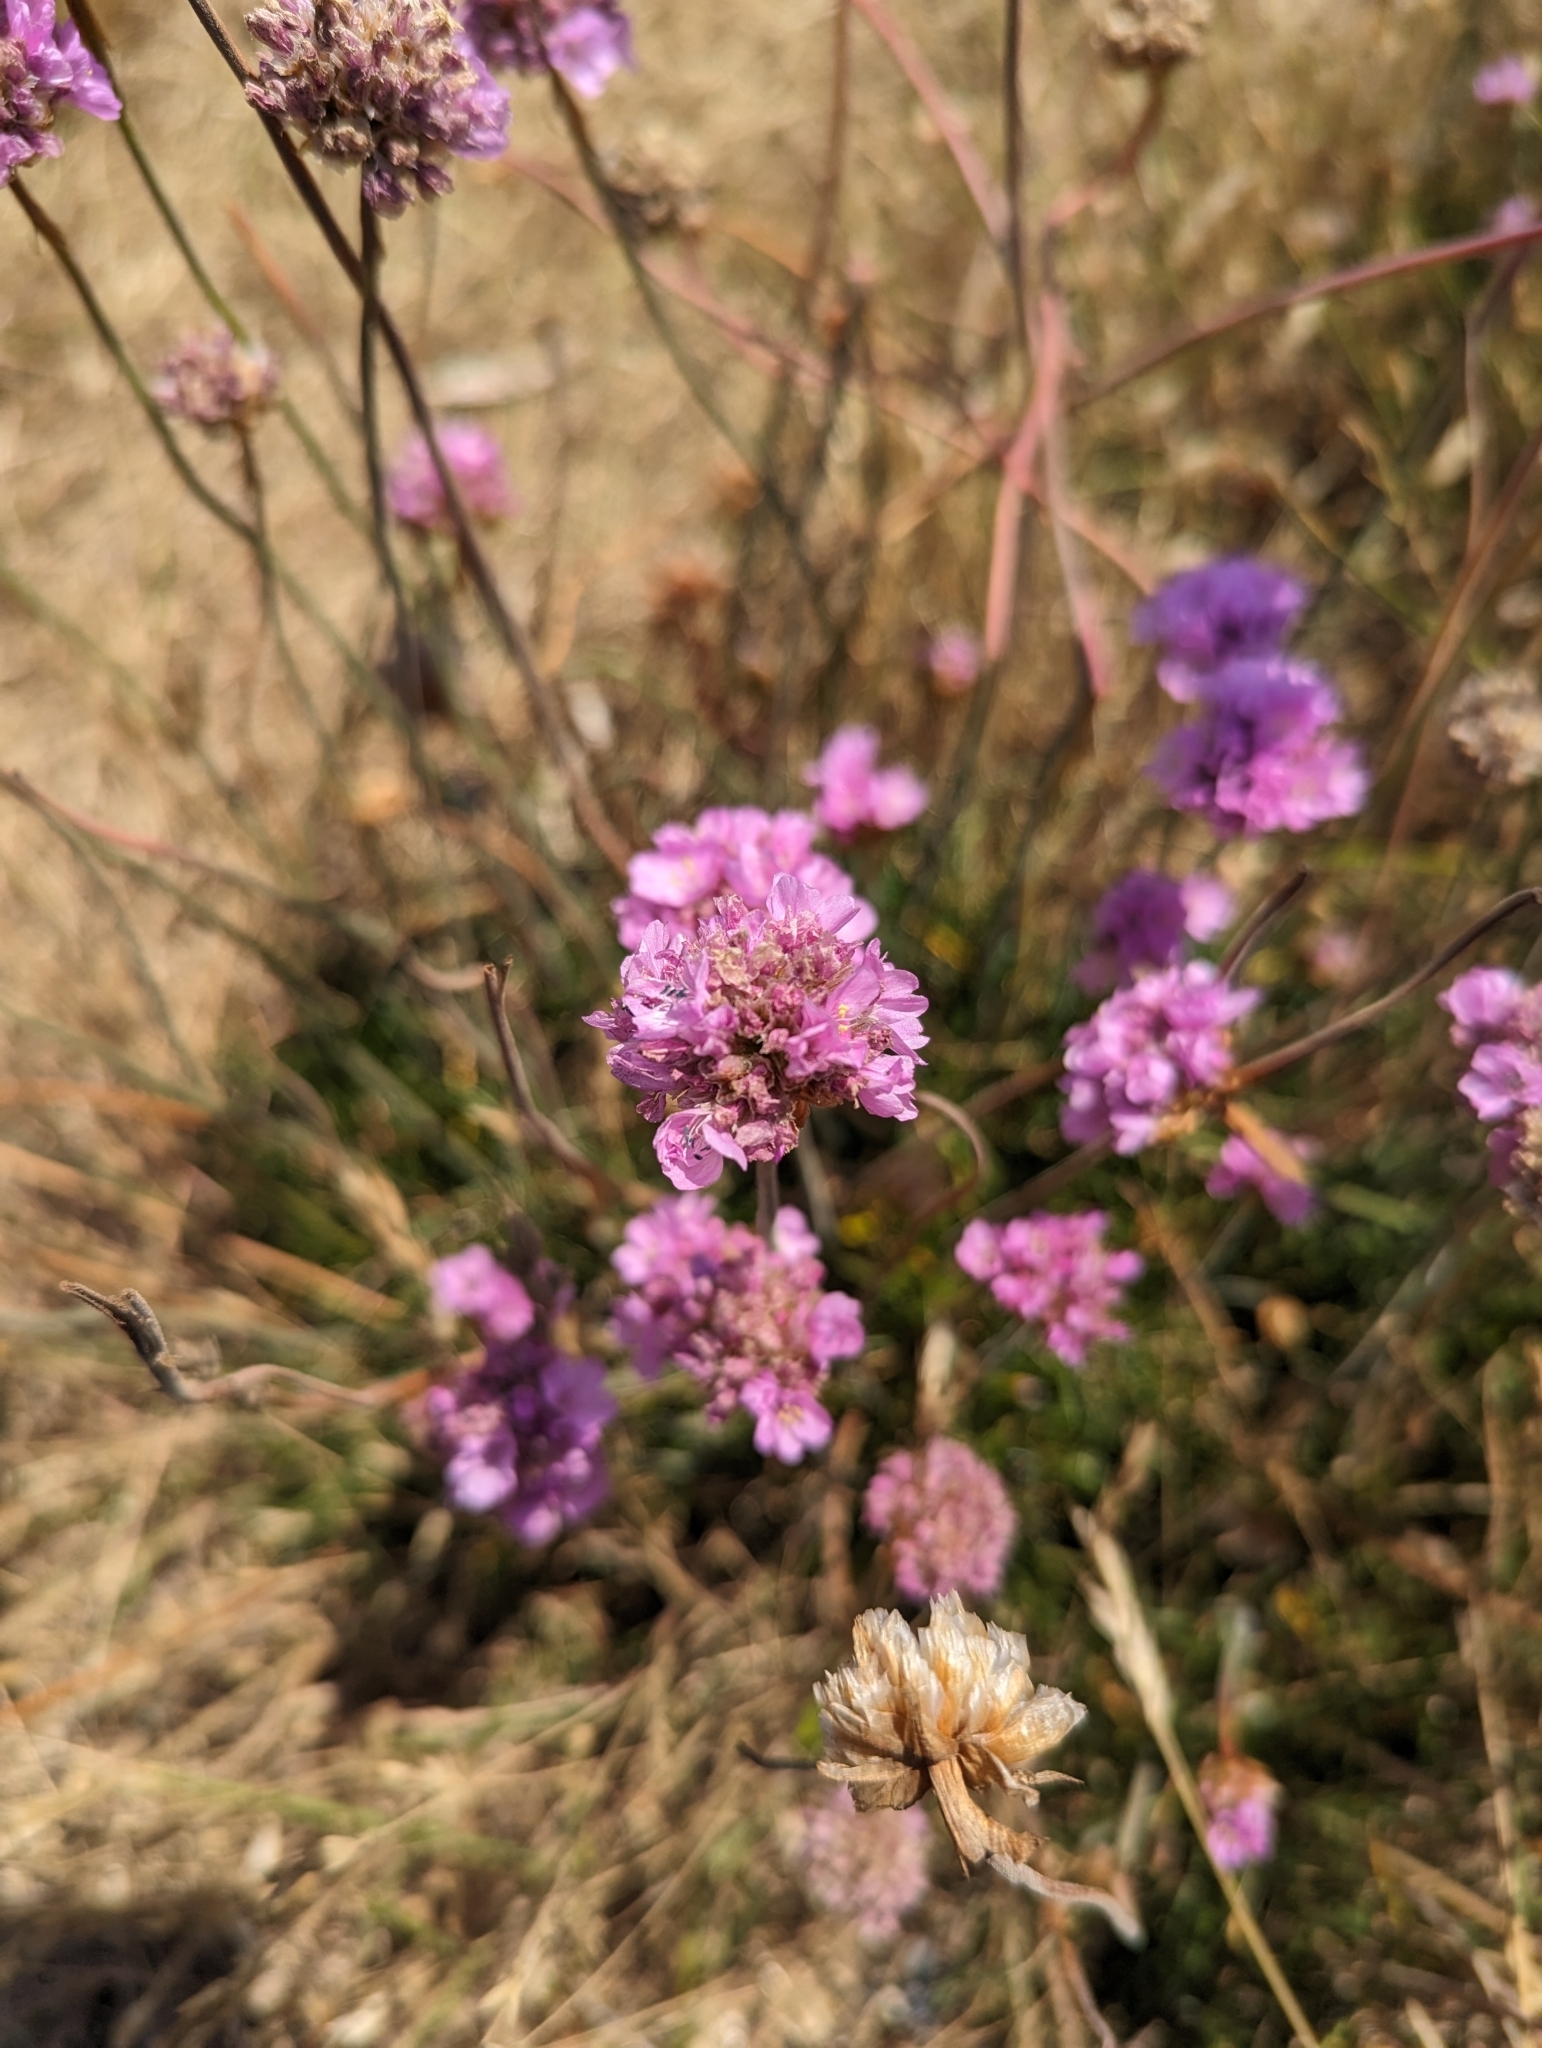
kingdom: Plantae
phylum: Tracheophyta
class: Magnoliopsida
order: Caryophyllales
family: Plumbaginaceae
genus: Armeria
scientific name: Armeria maritima
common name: Thrift
